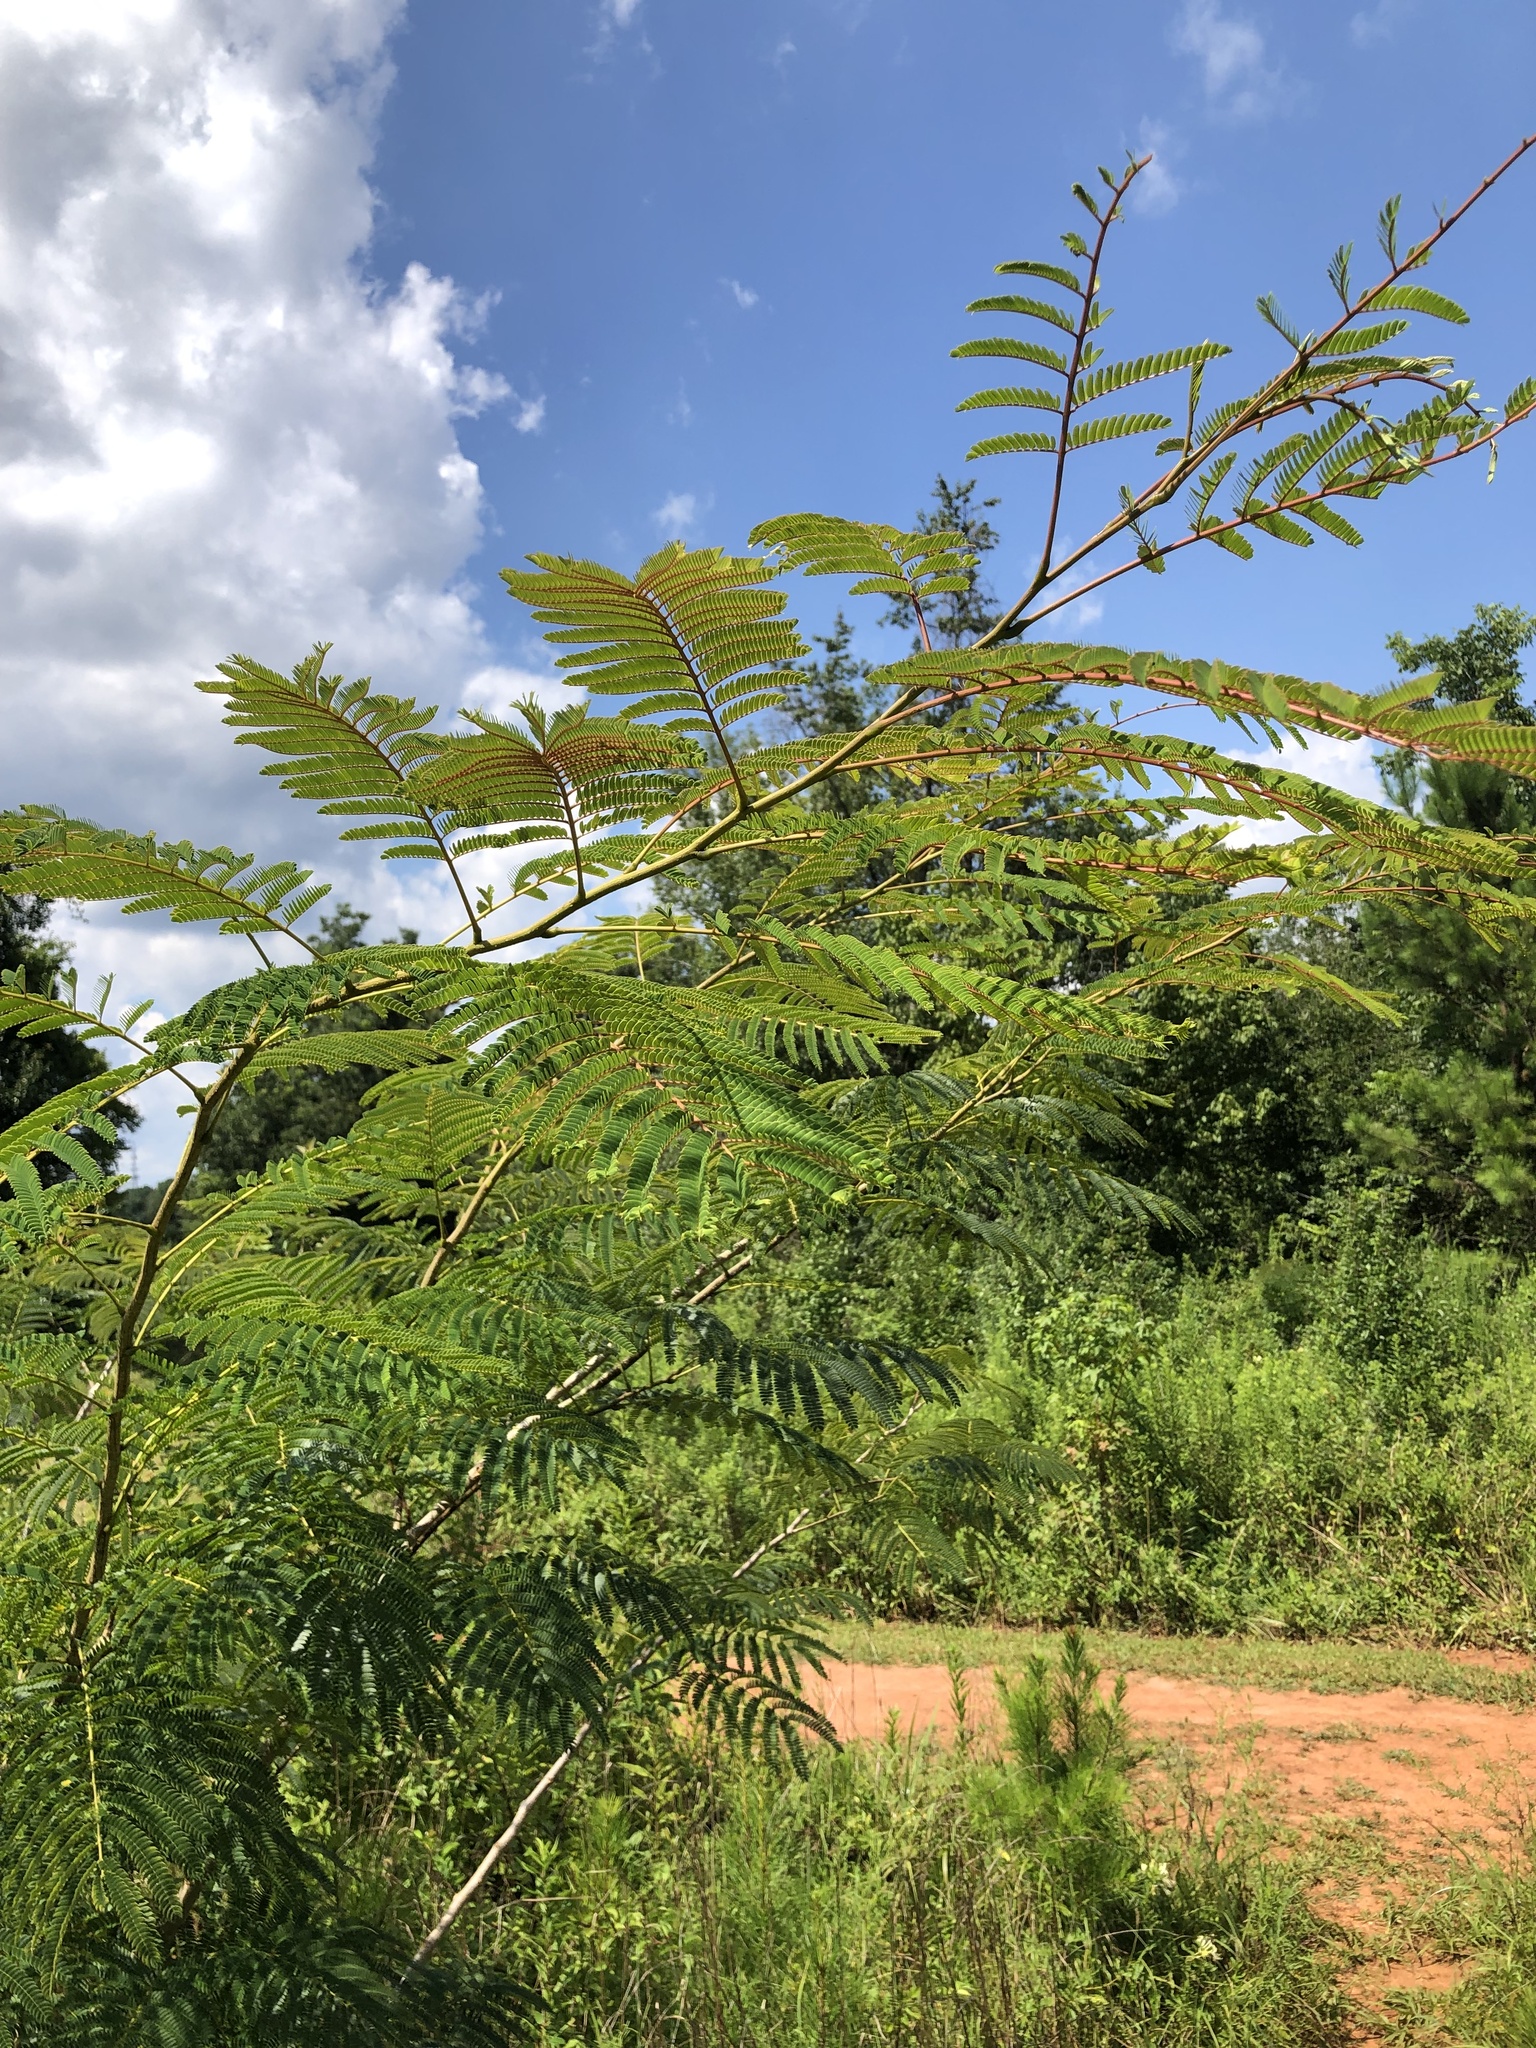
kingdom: Plantae
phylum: Tracheophyta
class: Magnoliopsida
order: Fabales
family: Fabaceae
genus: Albizia
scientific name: Albizia julibrissin
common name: Silktree
